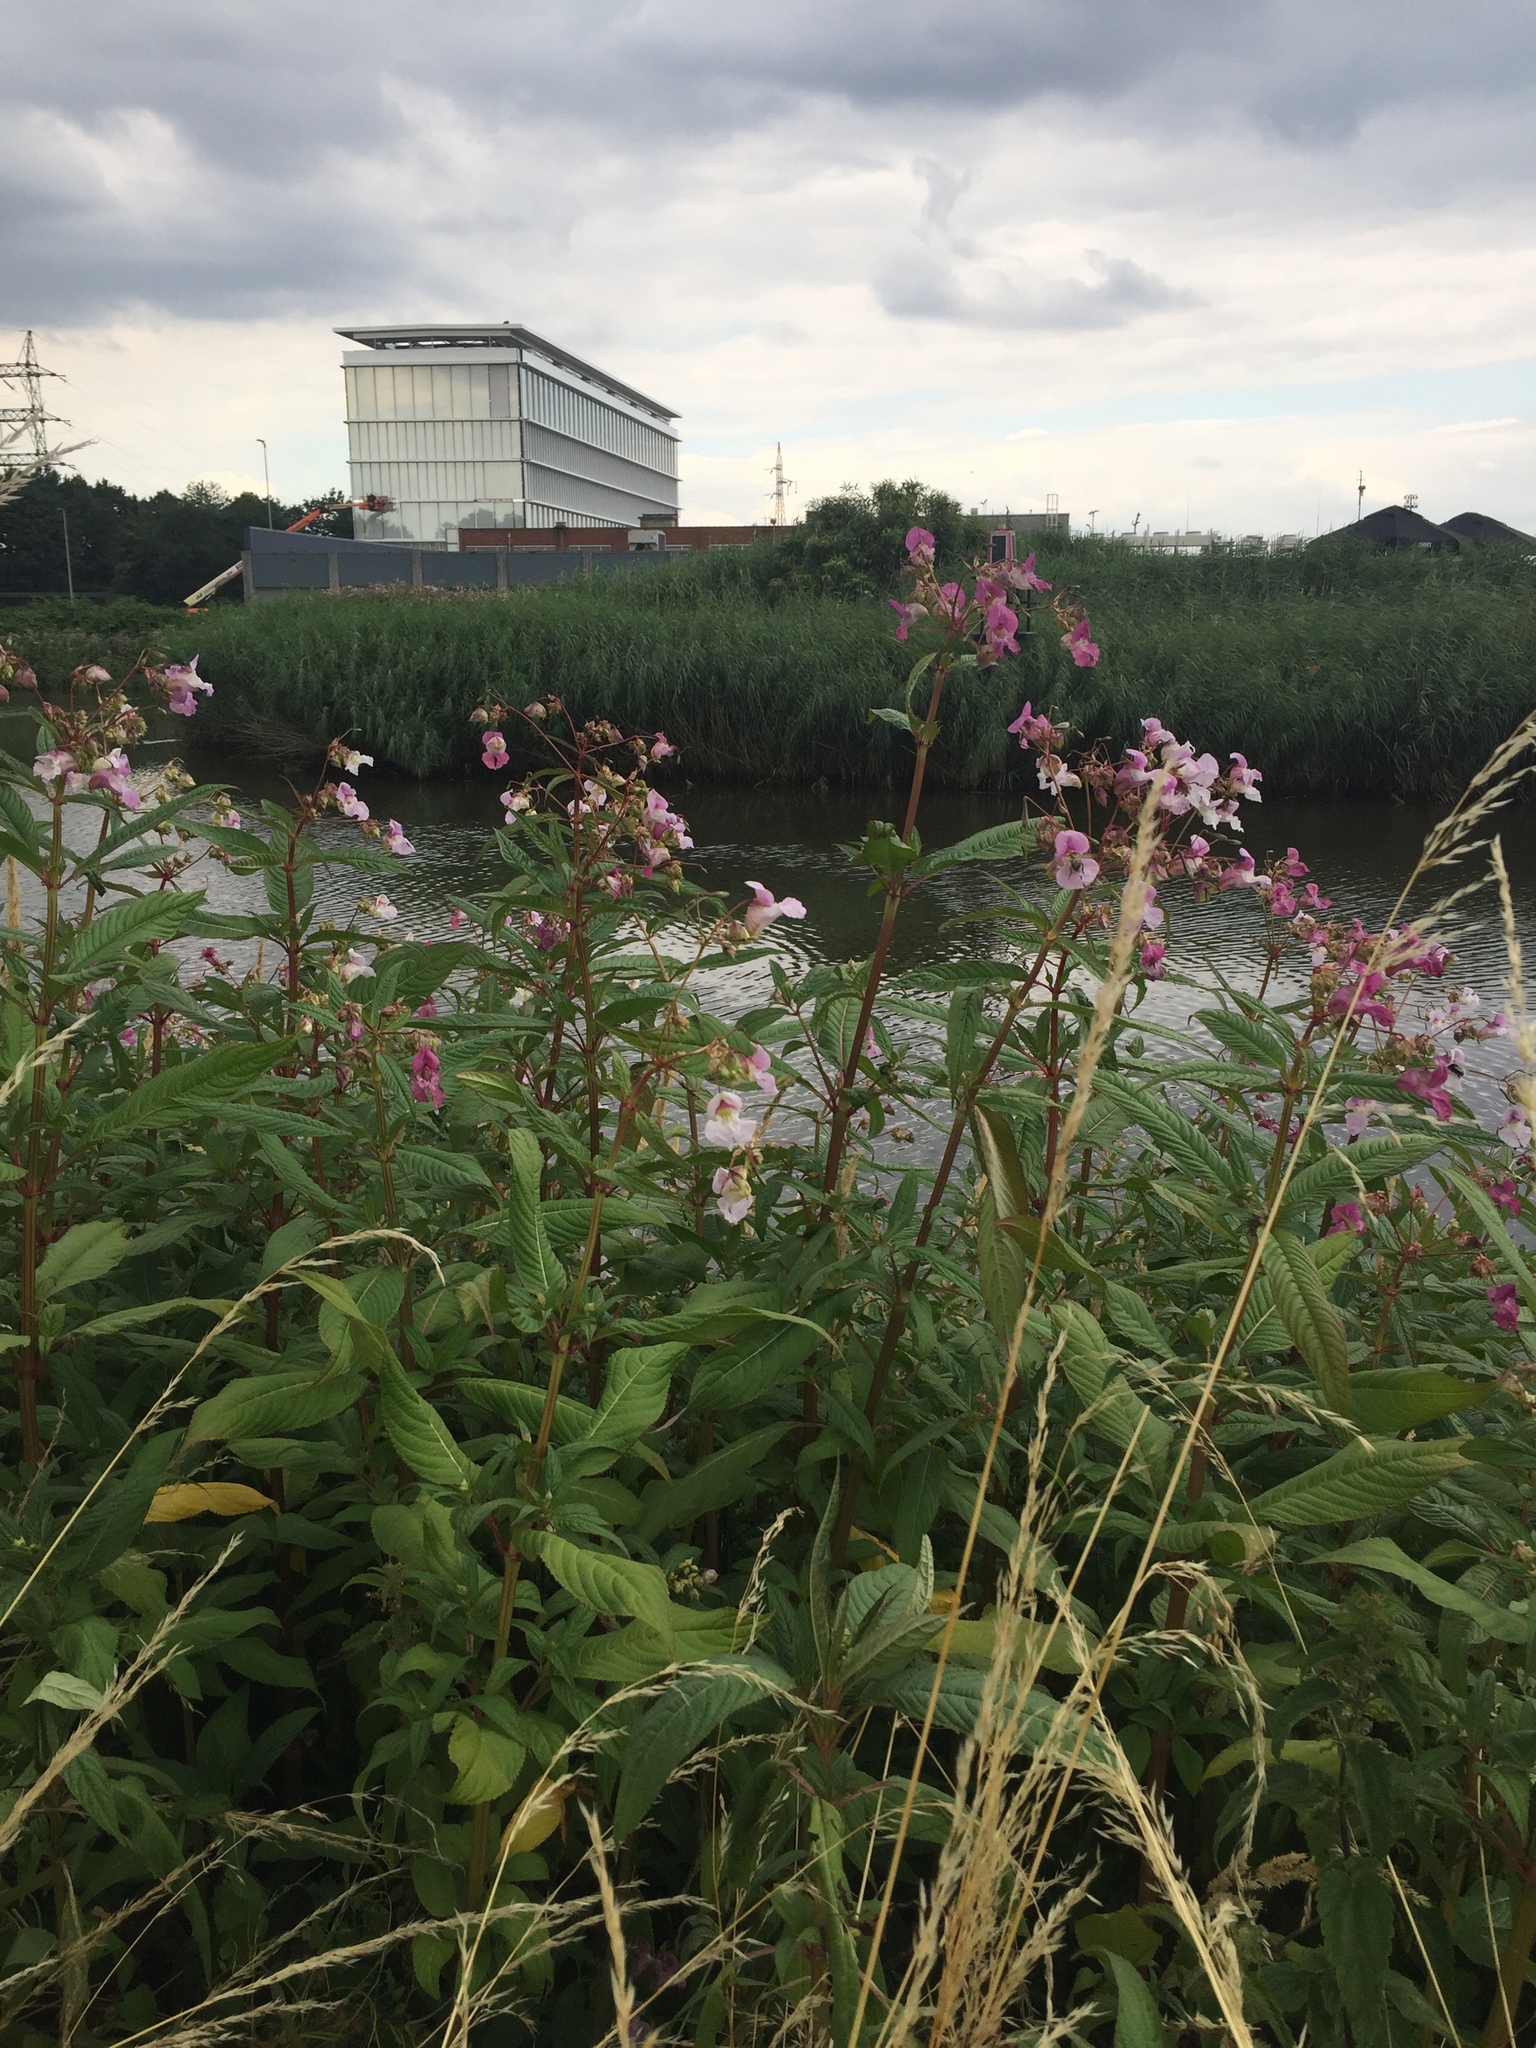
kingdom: Plantae
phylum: Tracheophyta
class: Magnoliopsida
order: Ericales
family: Balsaminaceae
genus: Impatiens
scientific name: Impatiens glandulifera
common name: Himalayan balsam
